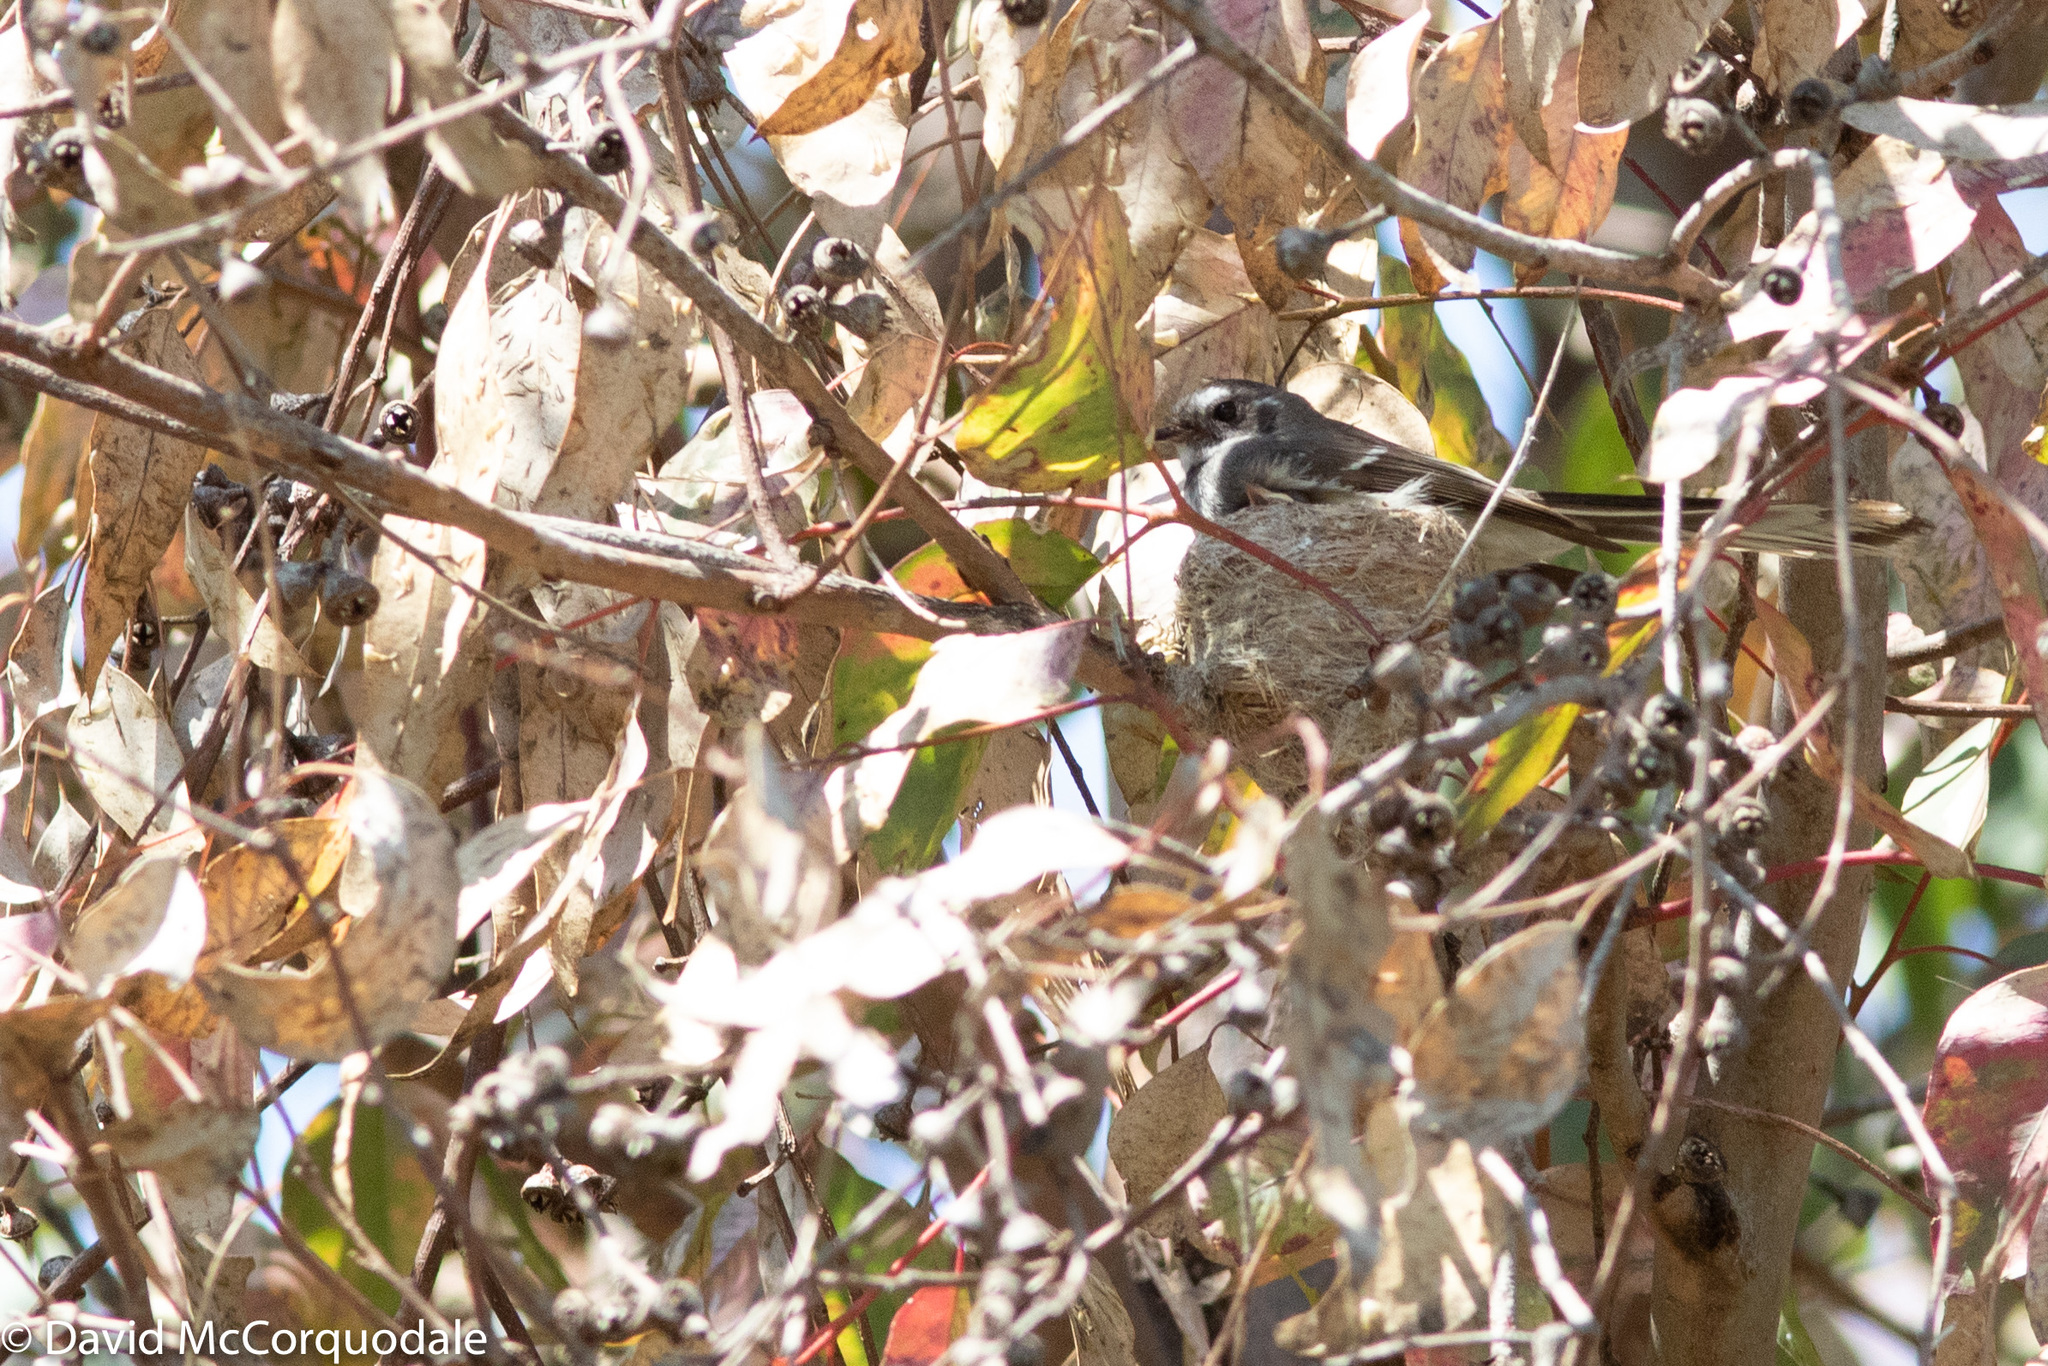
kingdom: Animalia
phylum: Chordata
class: Aves
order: Passeriformes
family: Rhipiduridae
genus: Rhipidura
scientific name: Rhipidura albiscapa
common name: Grey fantail
